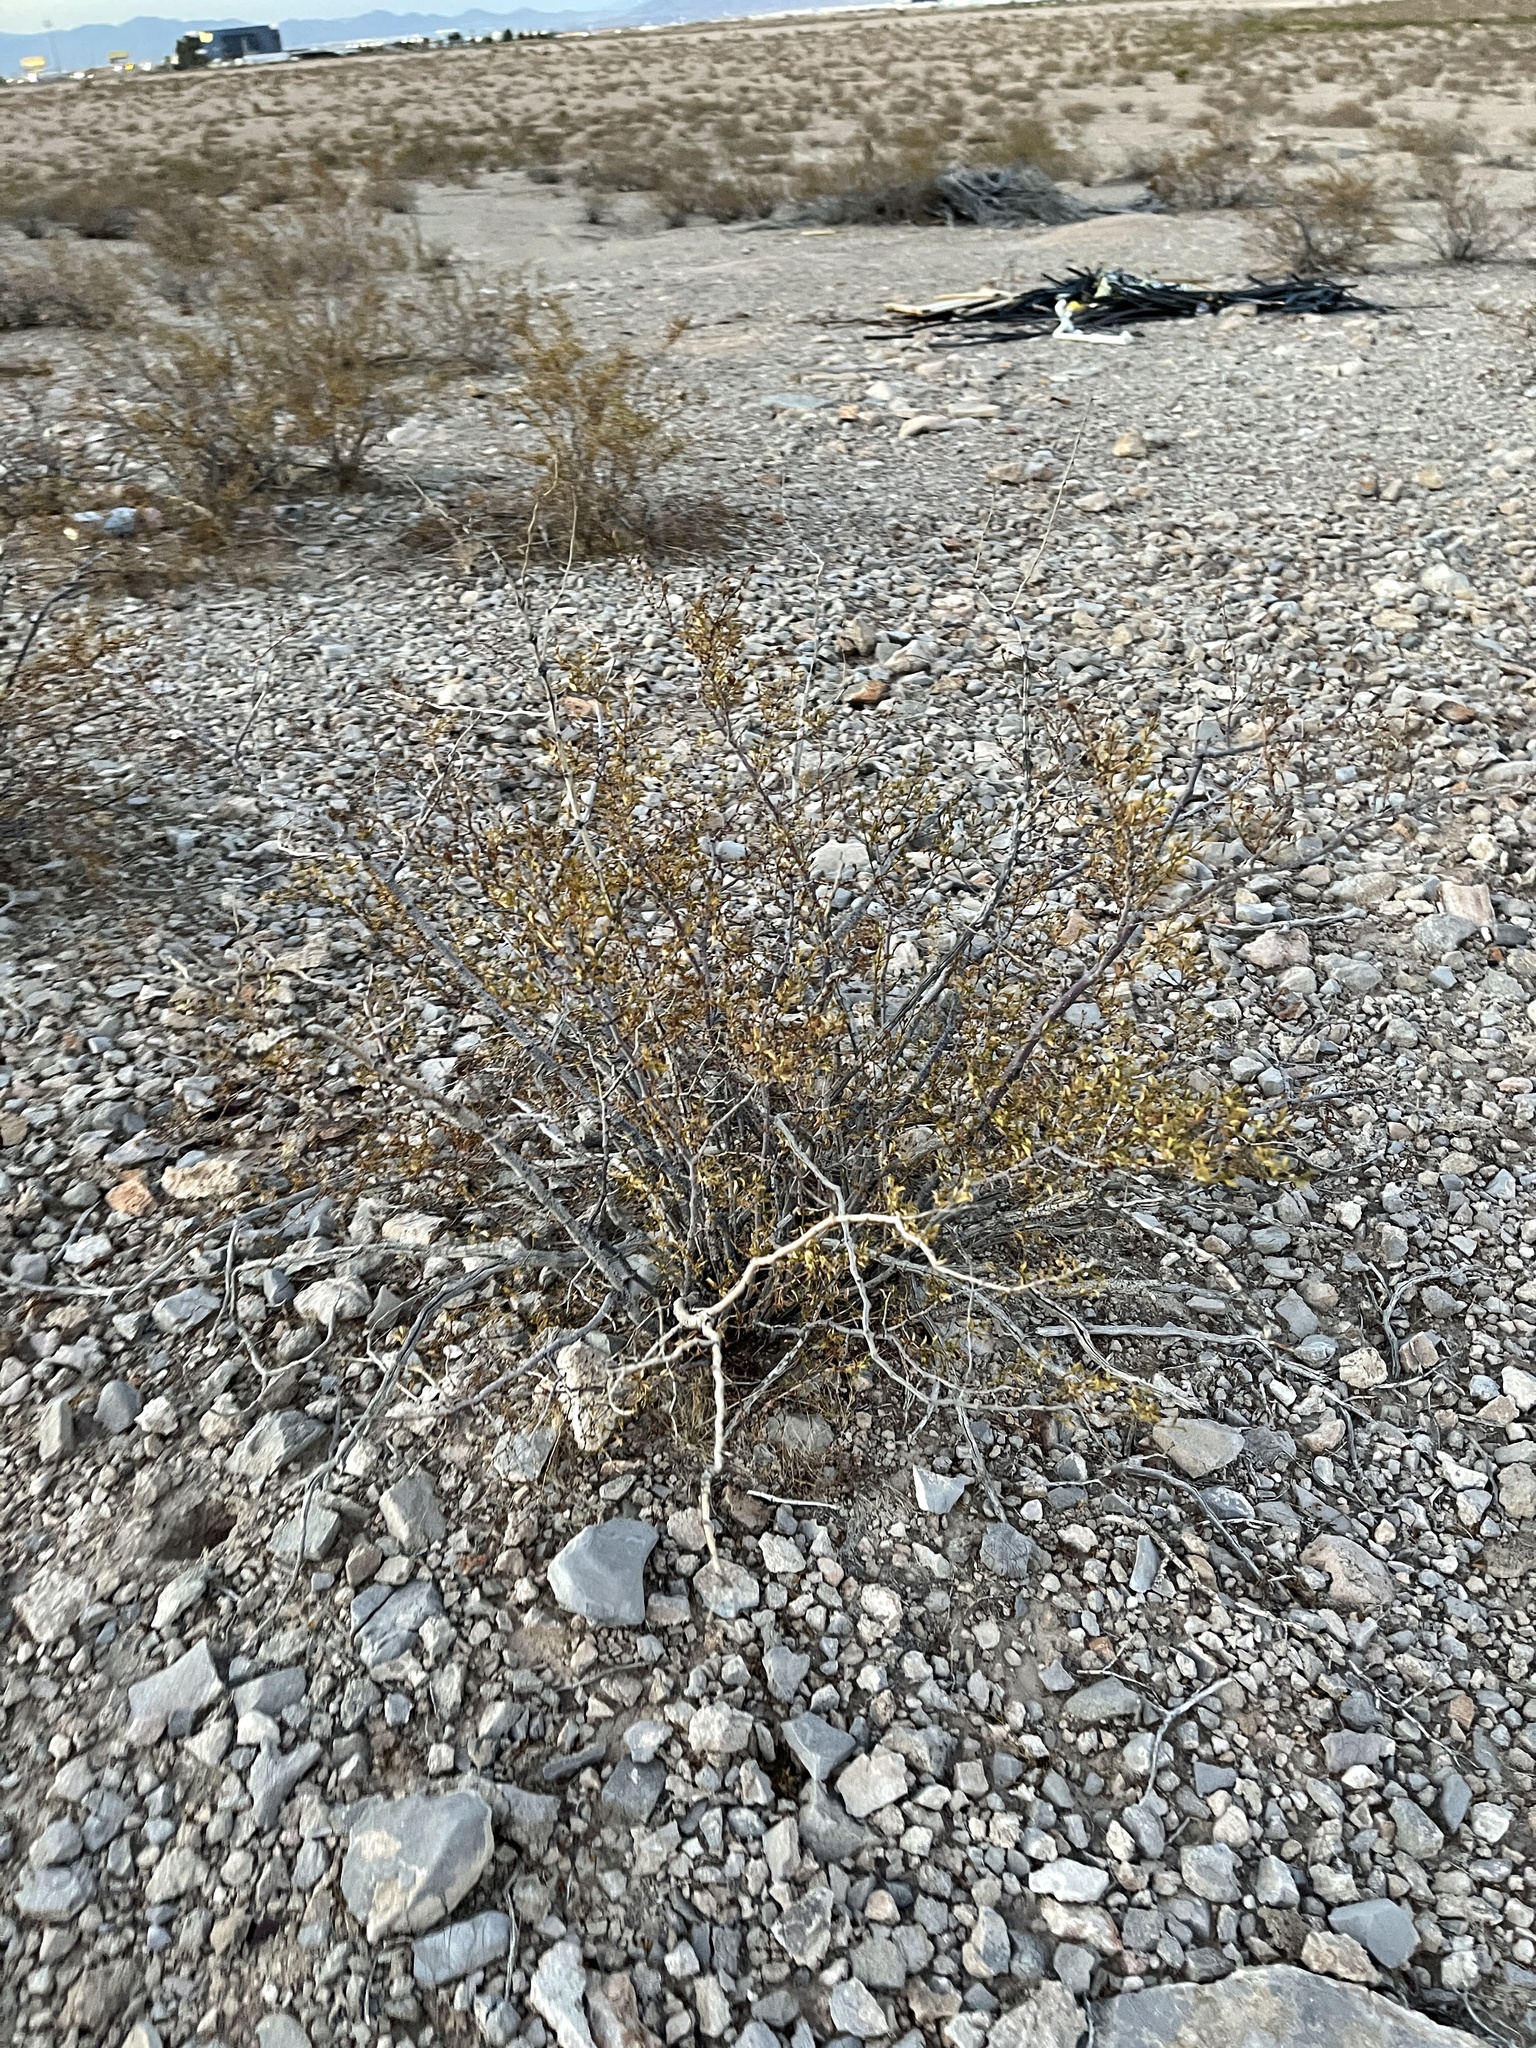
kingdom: Plantae
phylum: Tracheophyta
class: Magnoliopsida
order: Zygophyllales
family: Zygophyllaceae
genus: Larrea
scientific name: Larrea tridentata
